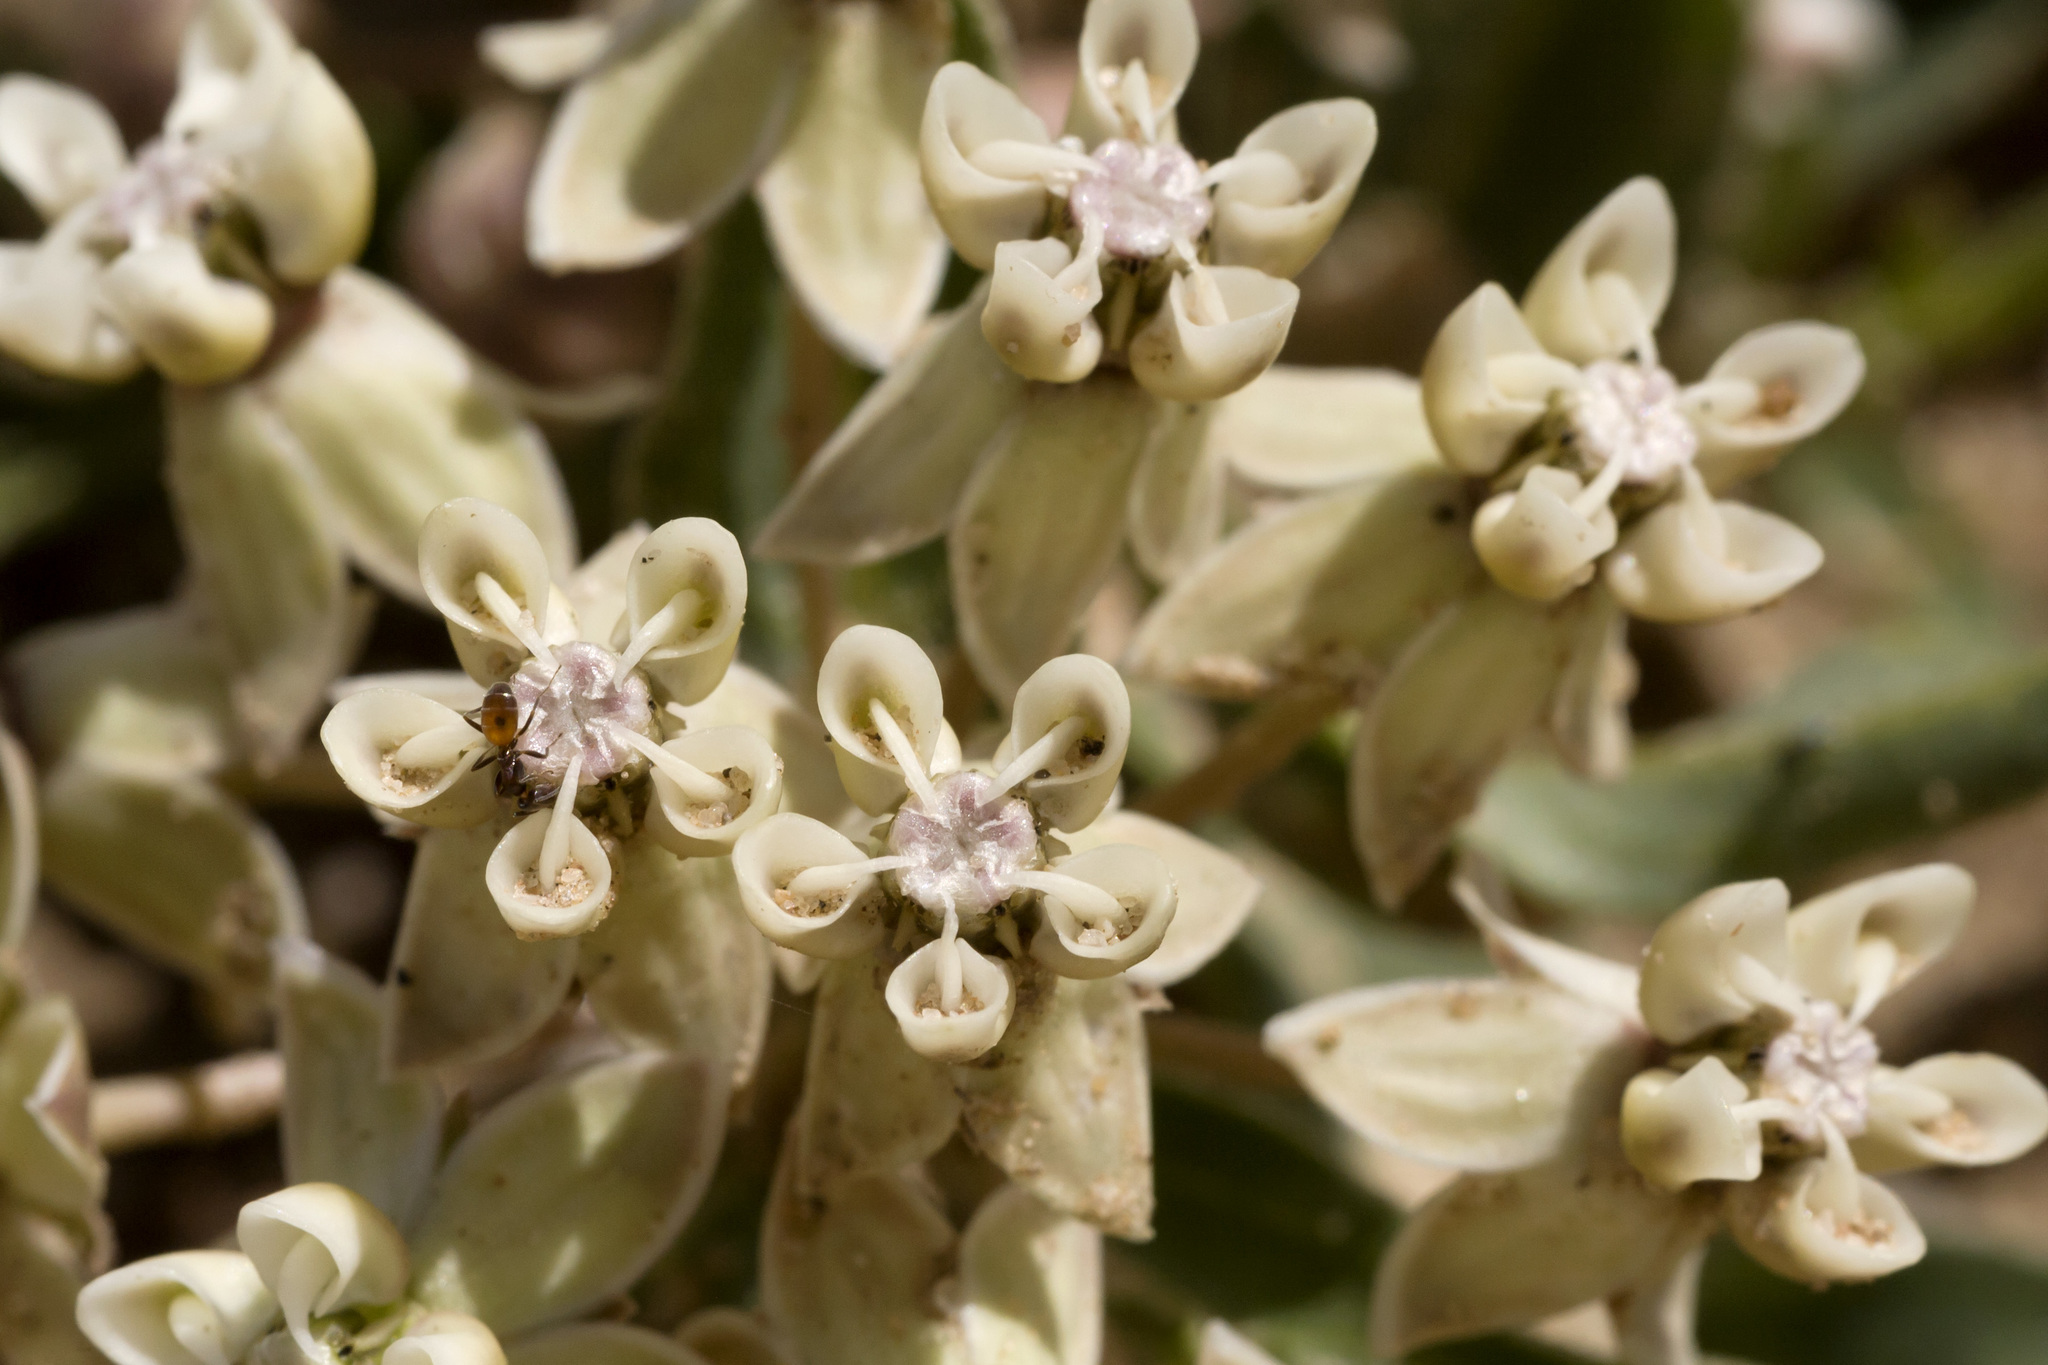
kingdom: Plantae
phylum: Tracheophyta
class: Magnoliopsida
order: Gentianales
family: Apocynaceae
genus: Asclepias
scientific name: Asclepias involucrata
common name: Dwarf milkweed
